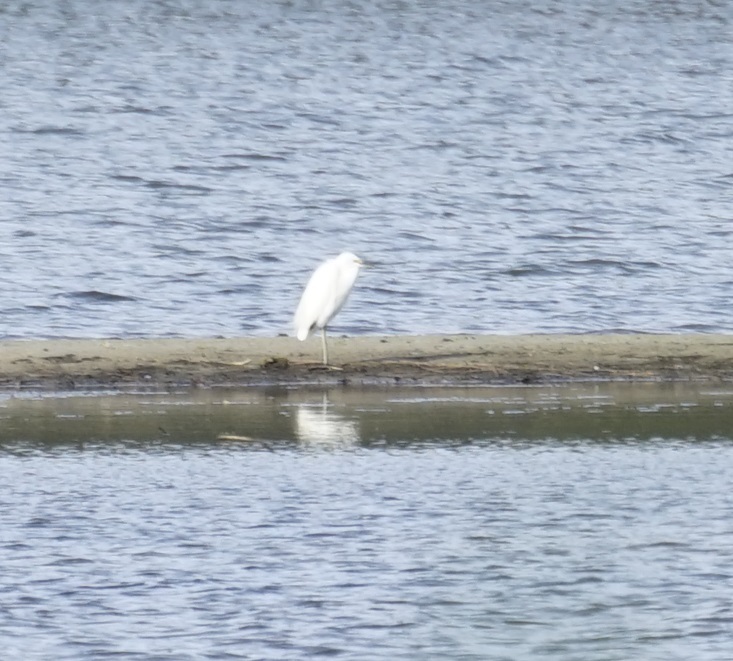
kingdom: Animalia
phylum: Chordata
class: Aves
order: Pelecaniformes
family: Ardeidae
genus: Egretta
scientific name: Egretta garzetta
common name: Little egret
